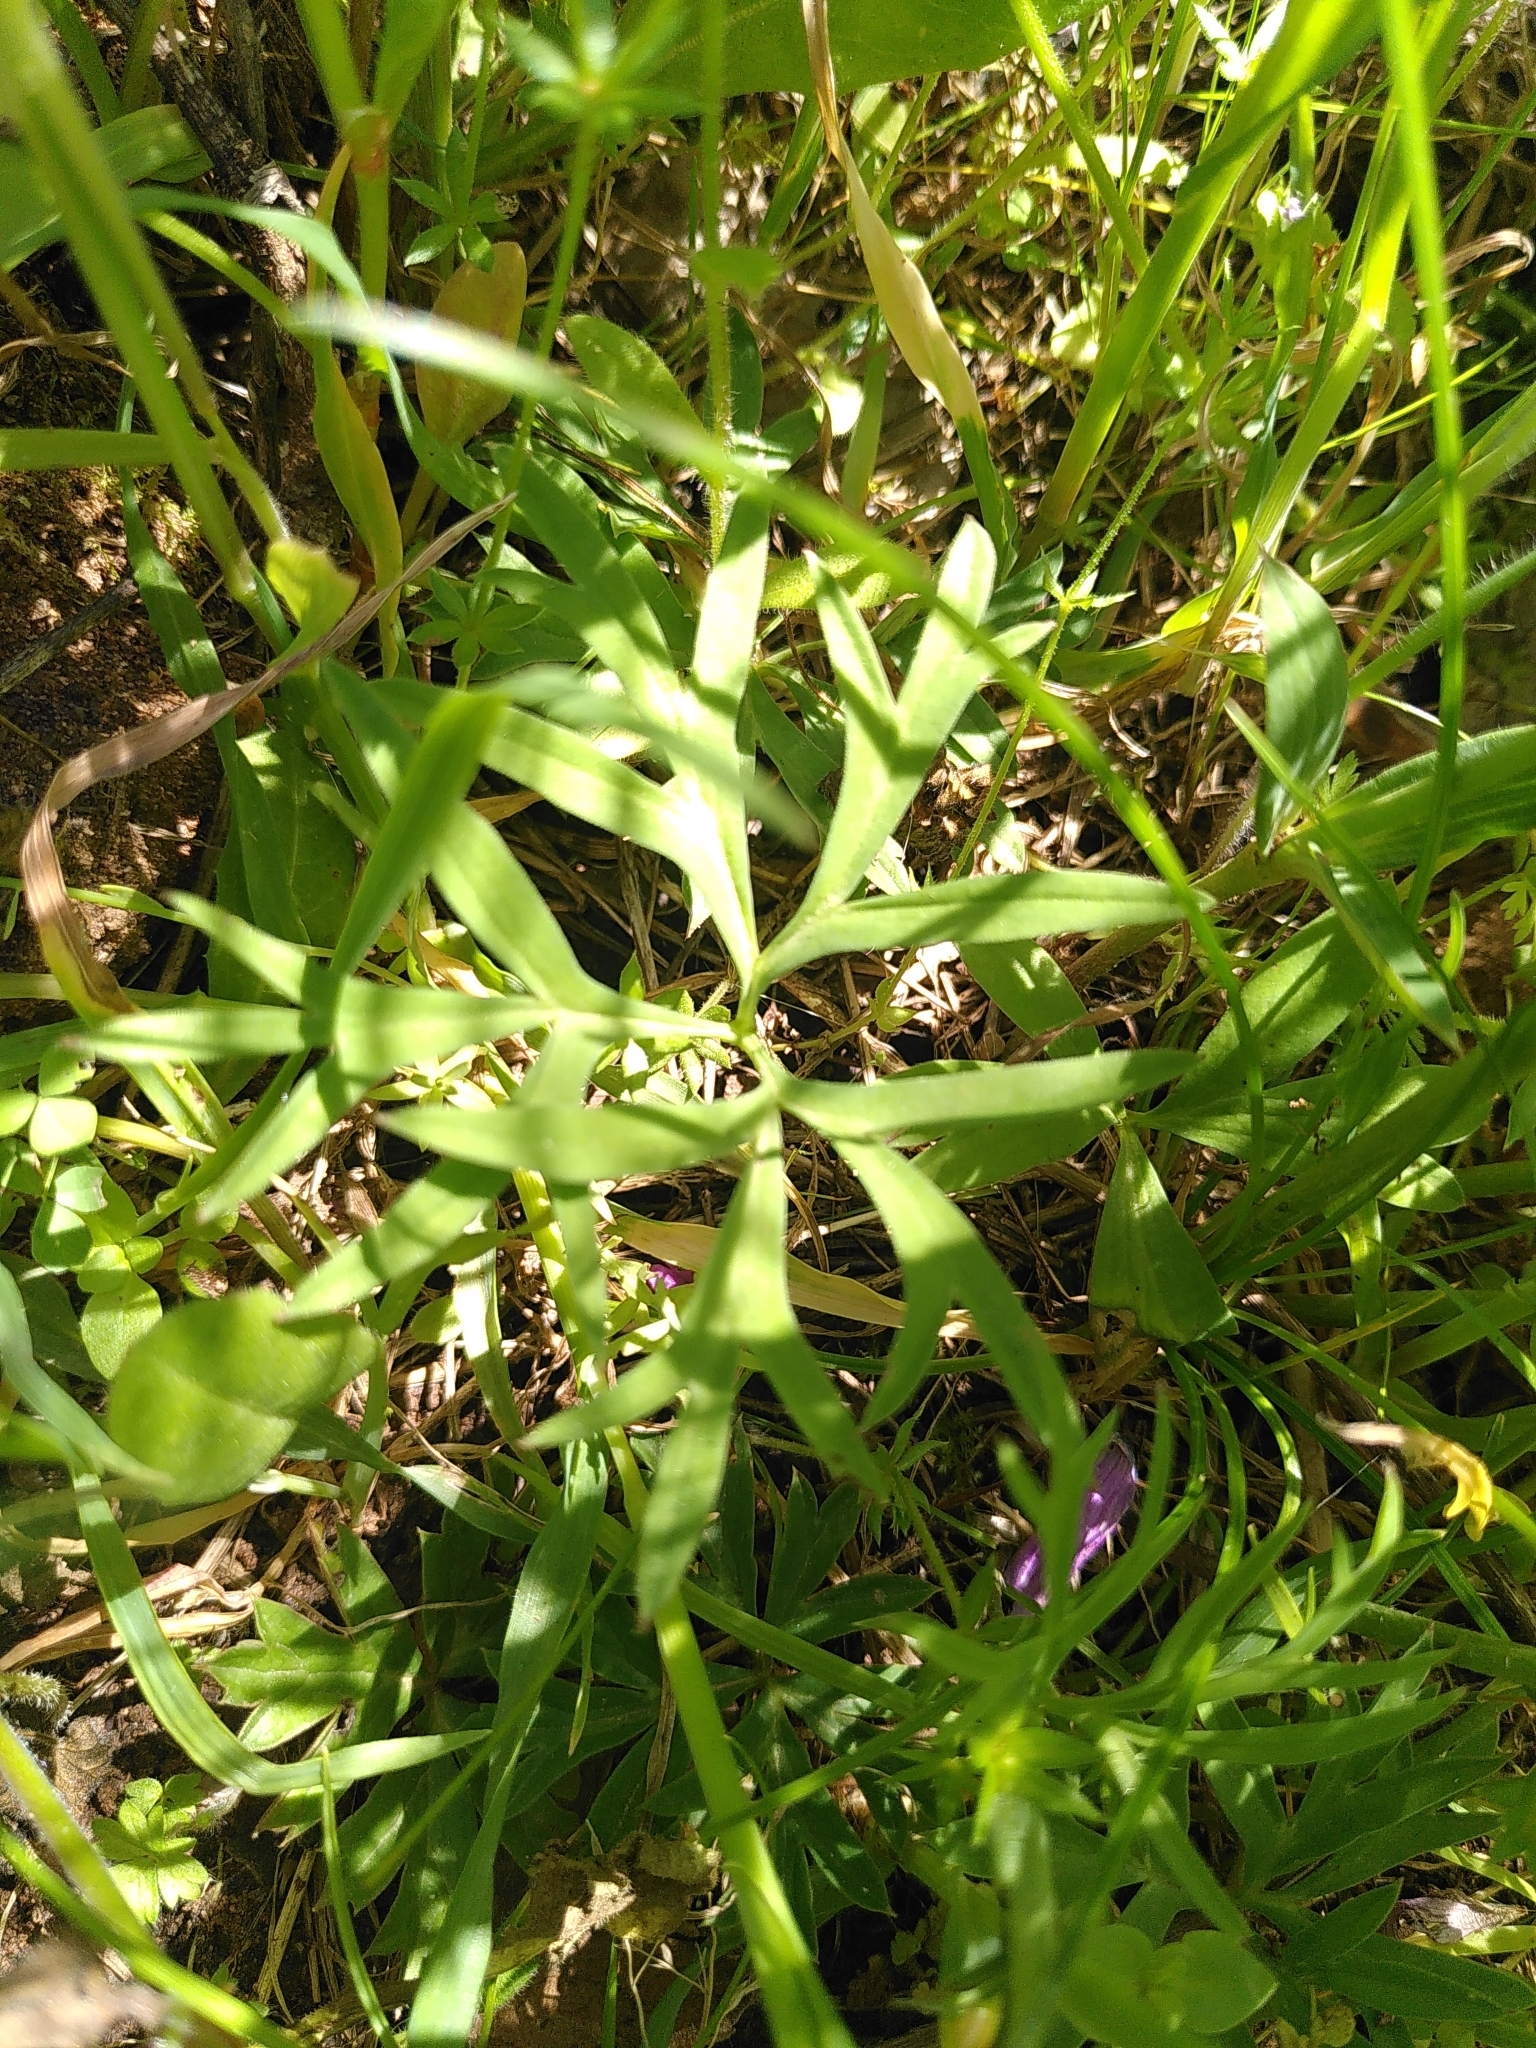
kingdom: Plantae
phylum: Tracheophyta
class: Magnoliopsida
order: Ranunculales
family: Ranunculaceae
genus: Anemone
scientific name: Anemone hortensis
